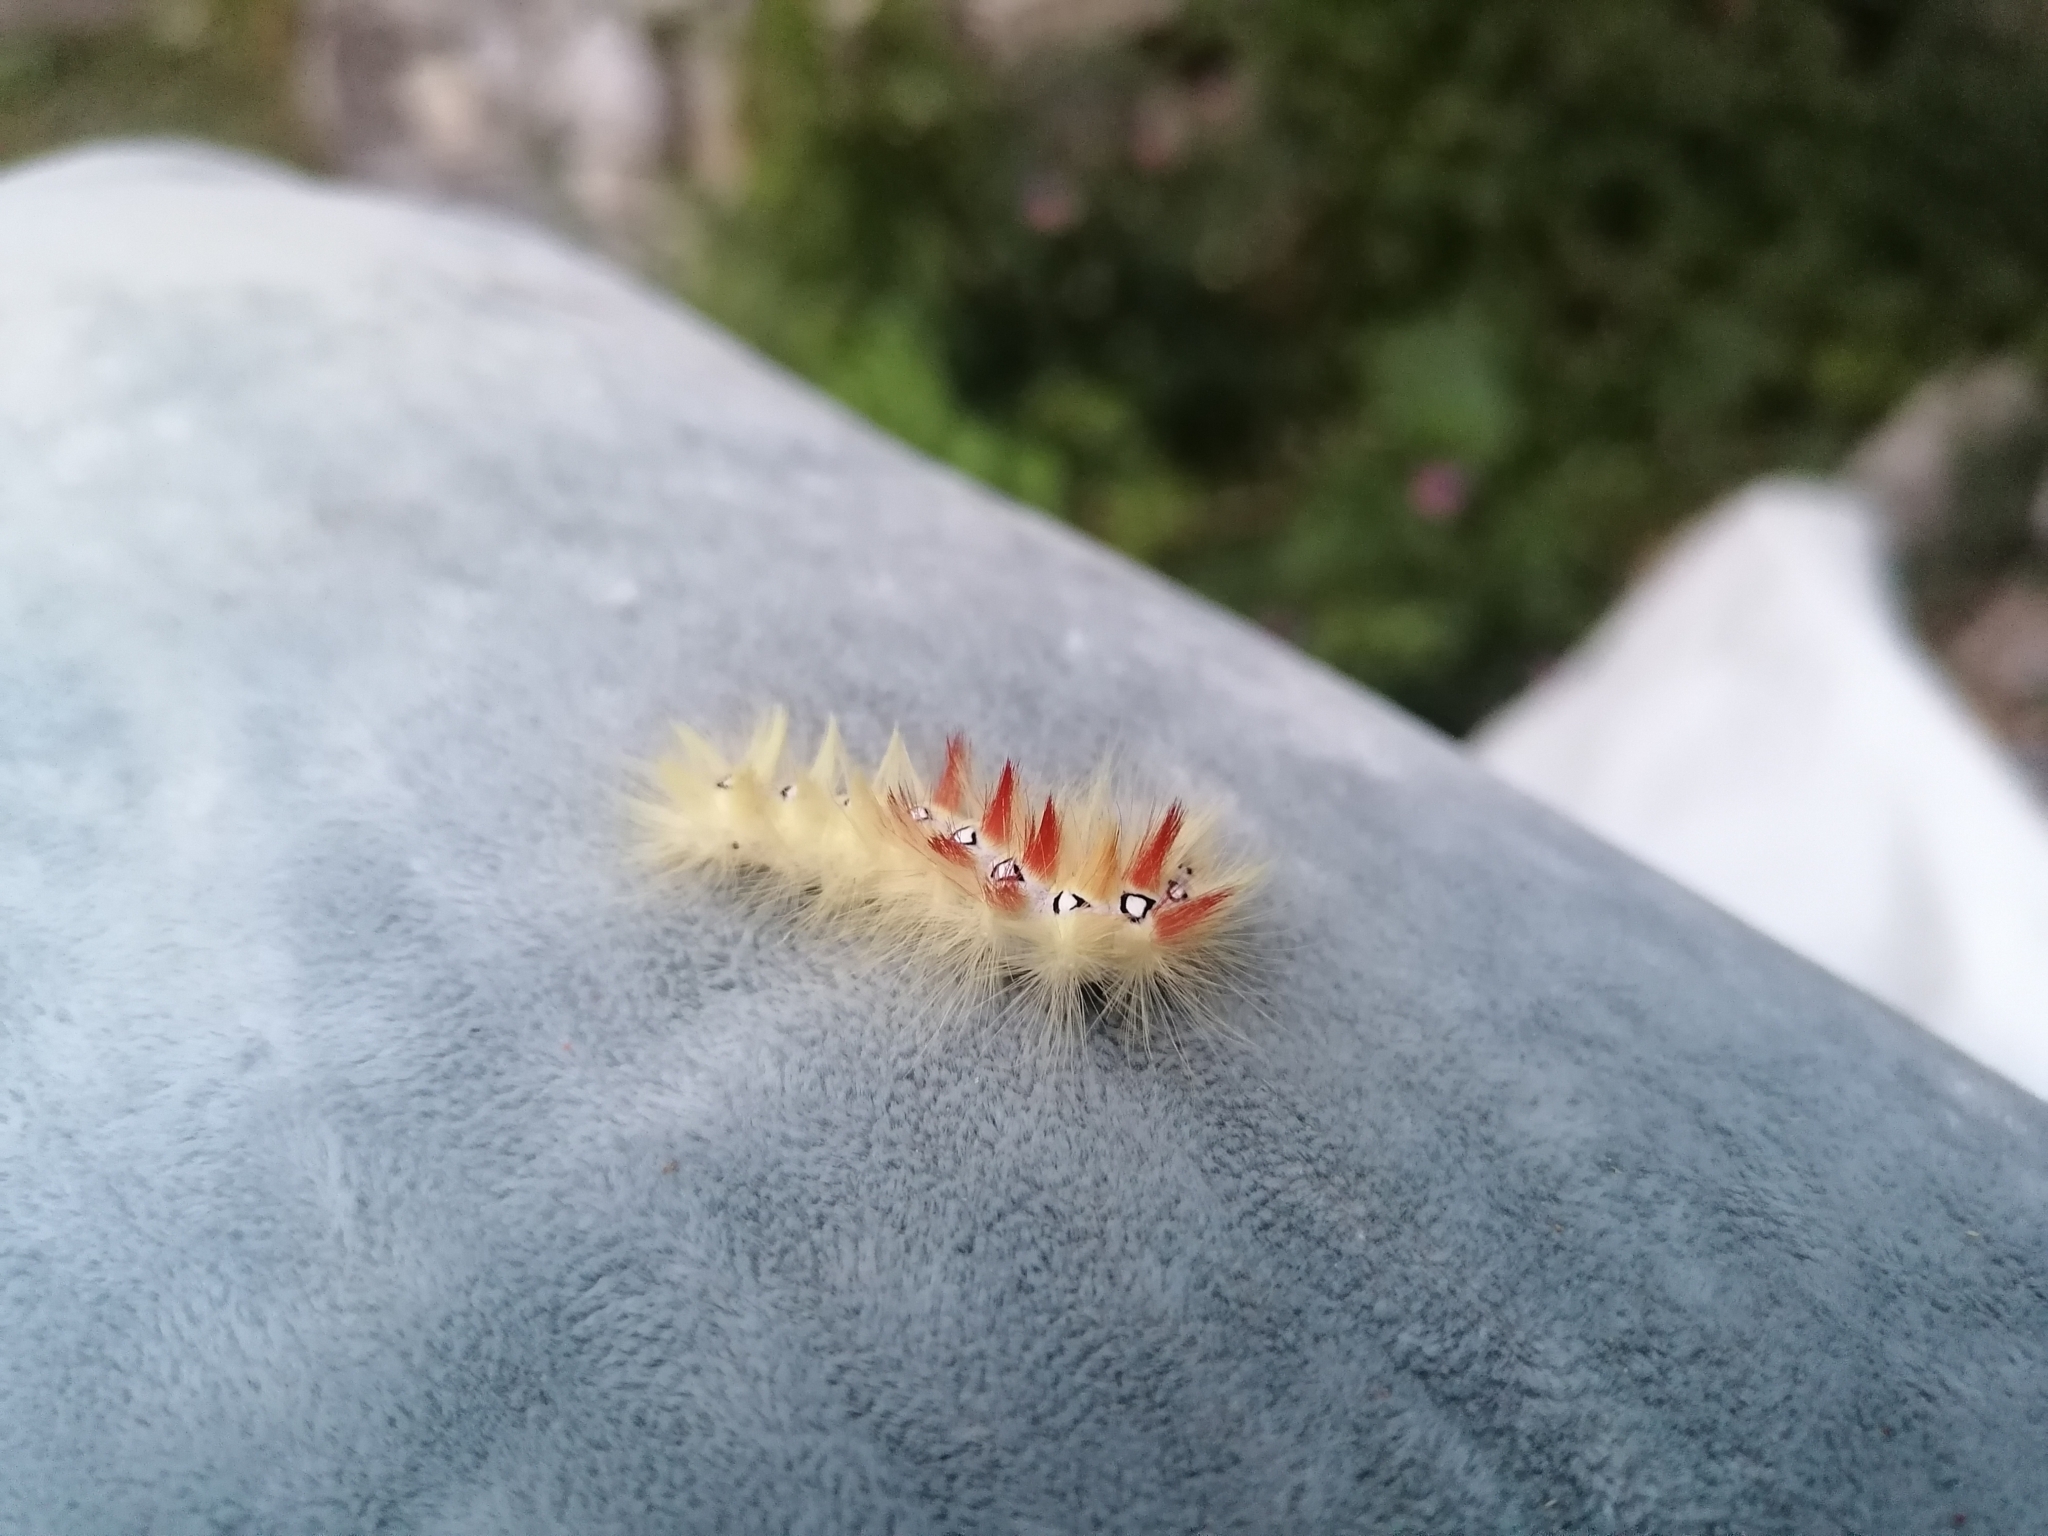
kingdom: Animalia
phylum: Arthropoda
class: Insecta
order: Lepidoptera
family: Noctuidae
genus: Acronicta
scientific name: Acronicta aceris
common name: Sycamore
